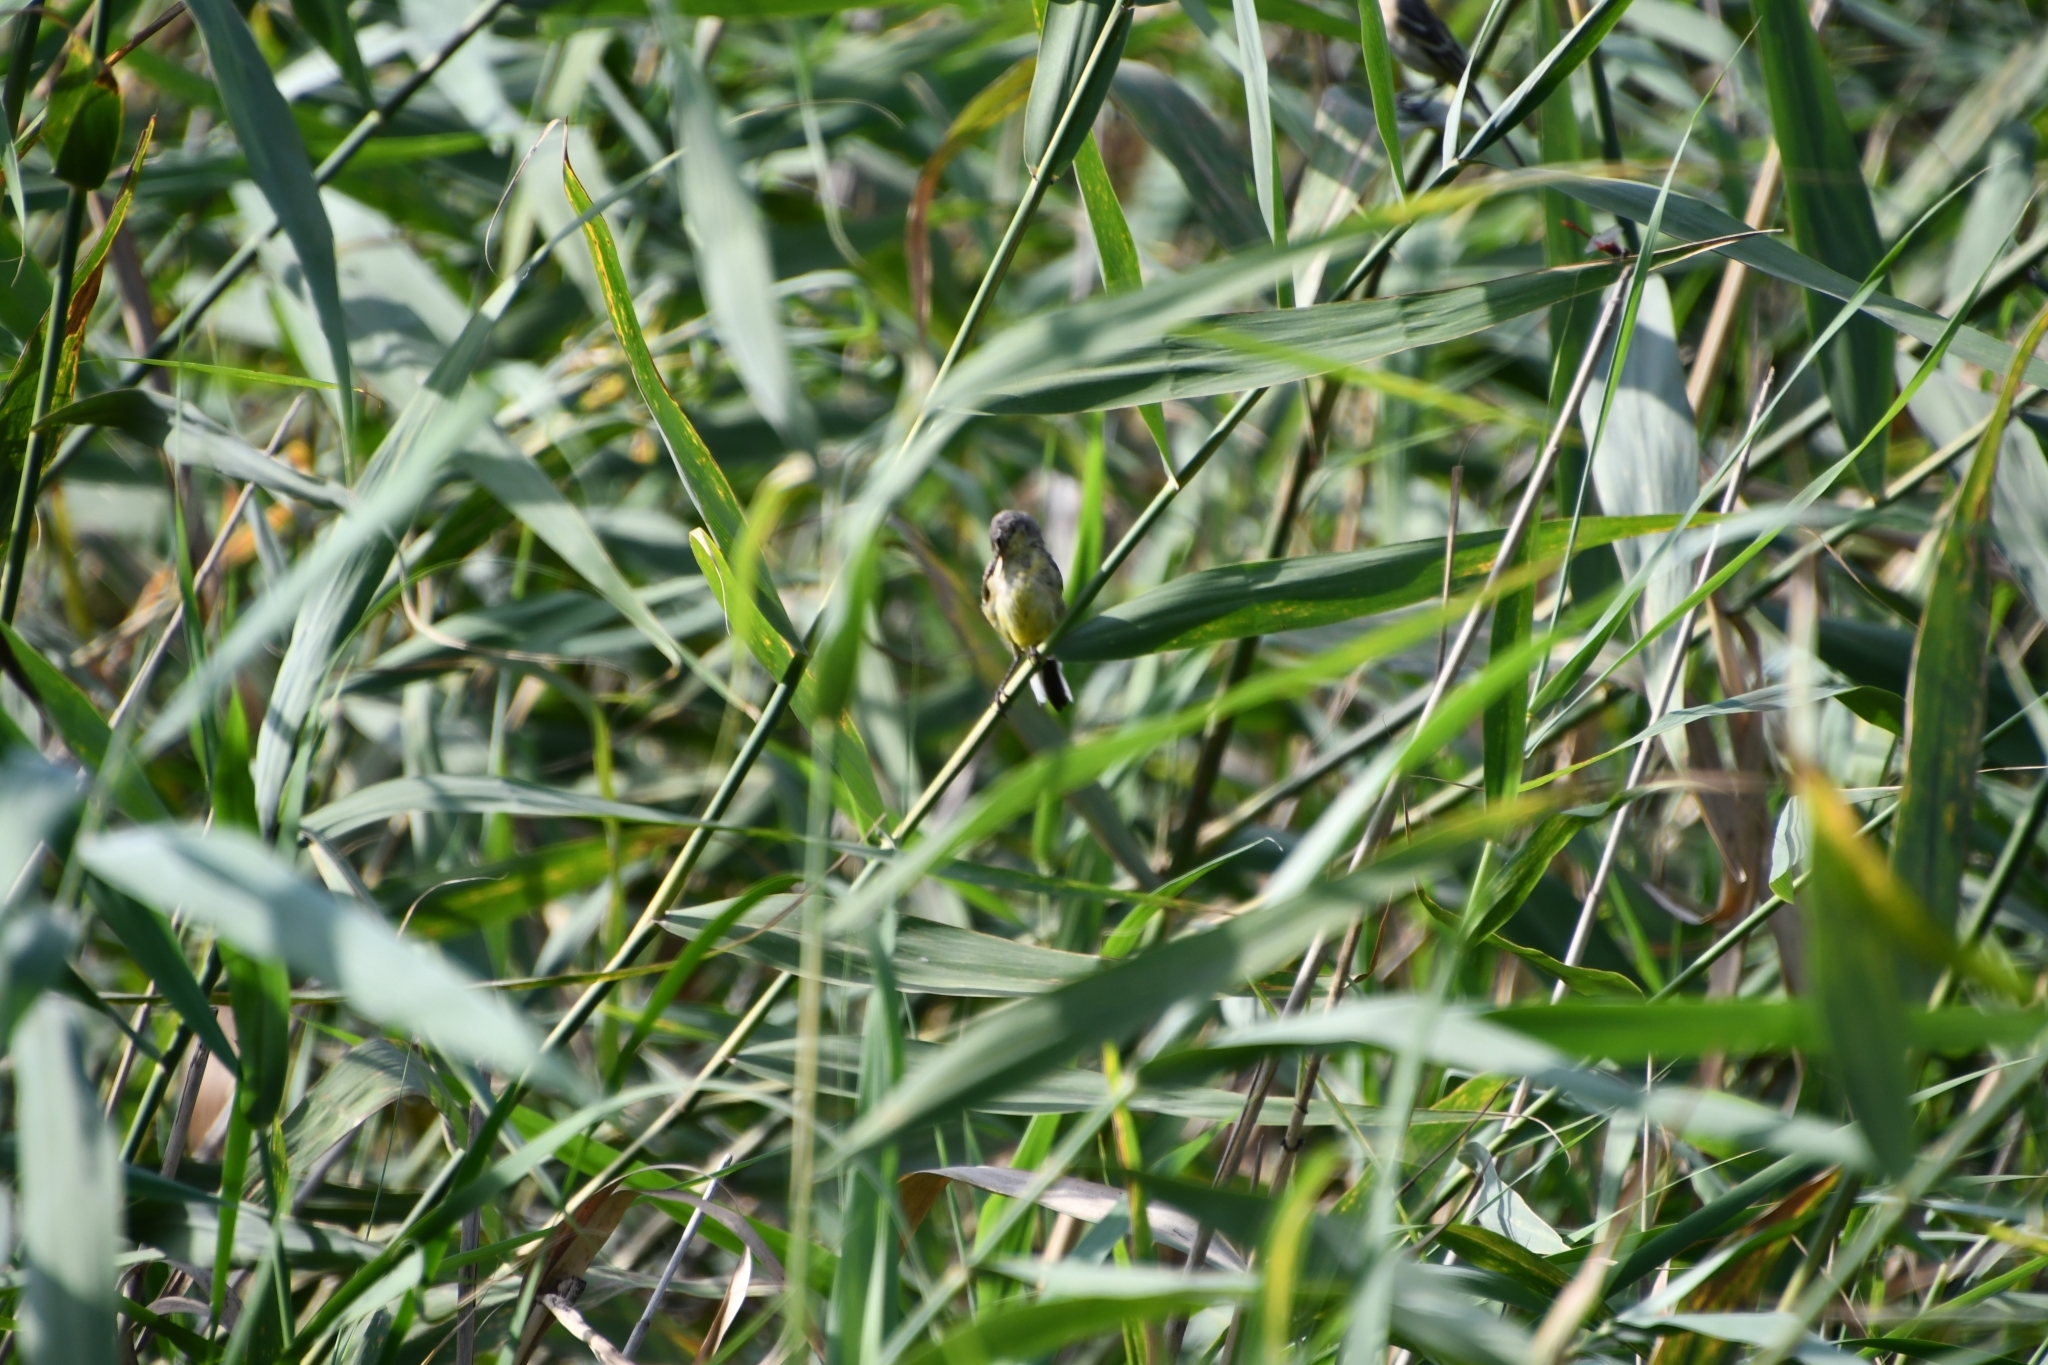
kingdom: Animalia
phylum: Chordata
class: Aves
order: Passeriformes
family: Motacillidae
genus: Motacilla
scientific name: Motacilla flava
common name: Western yellow wagtail
